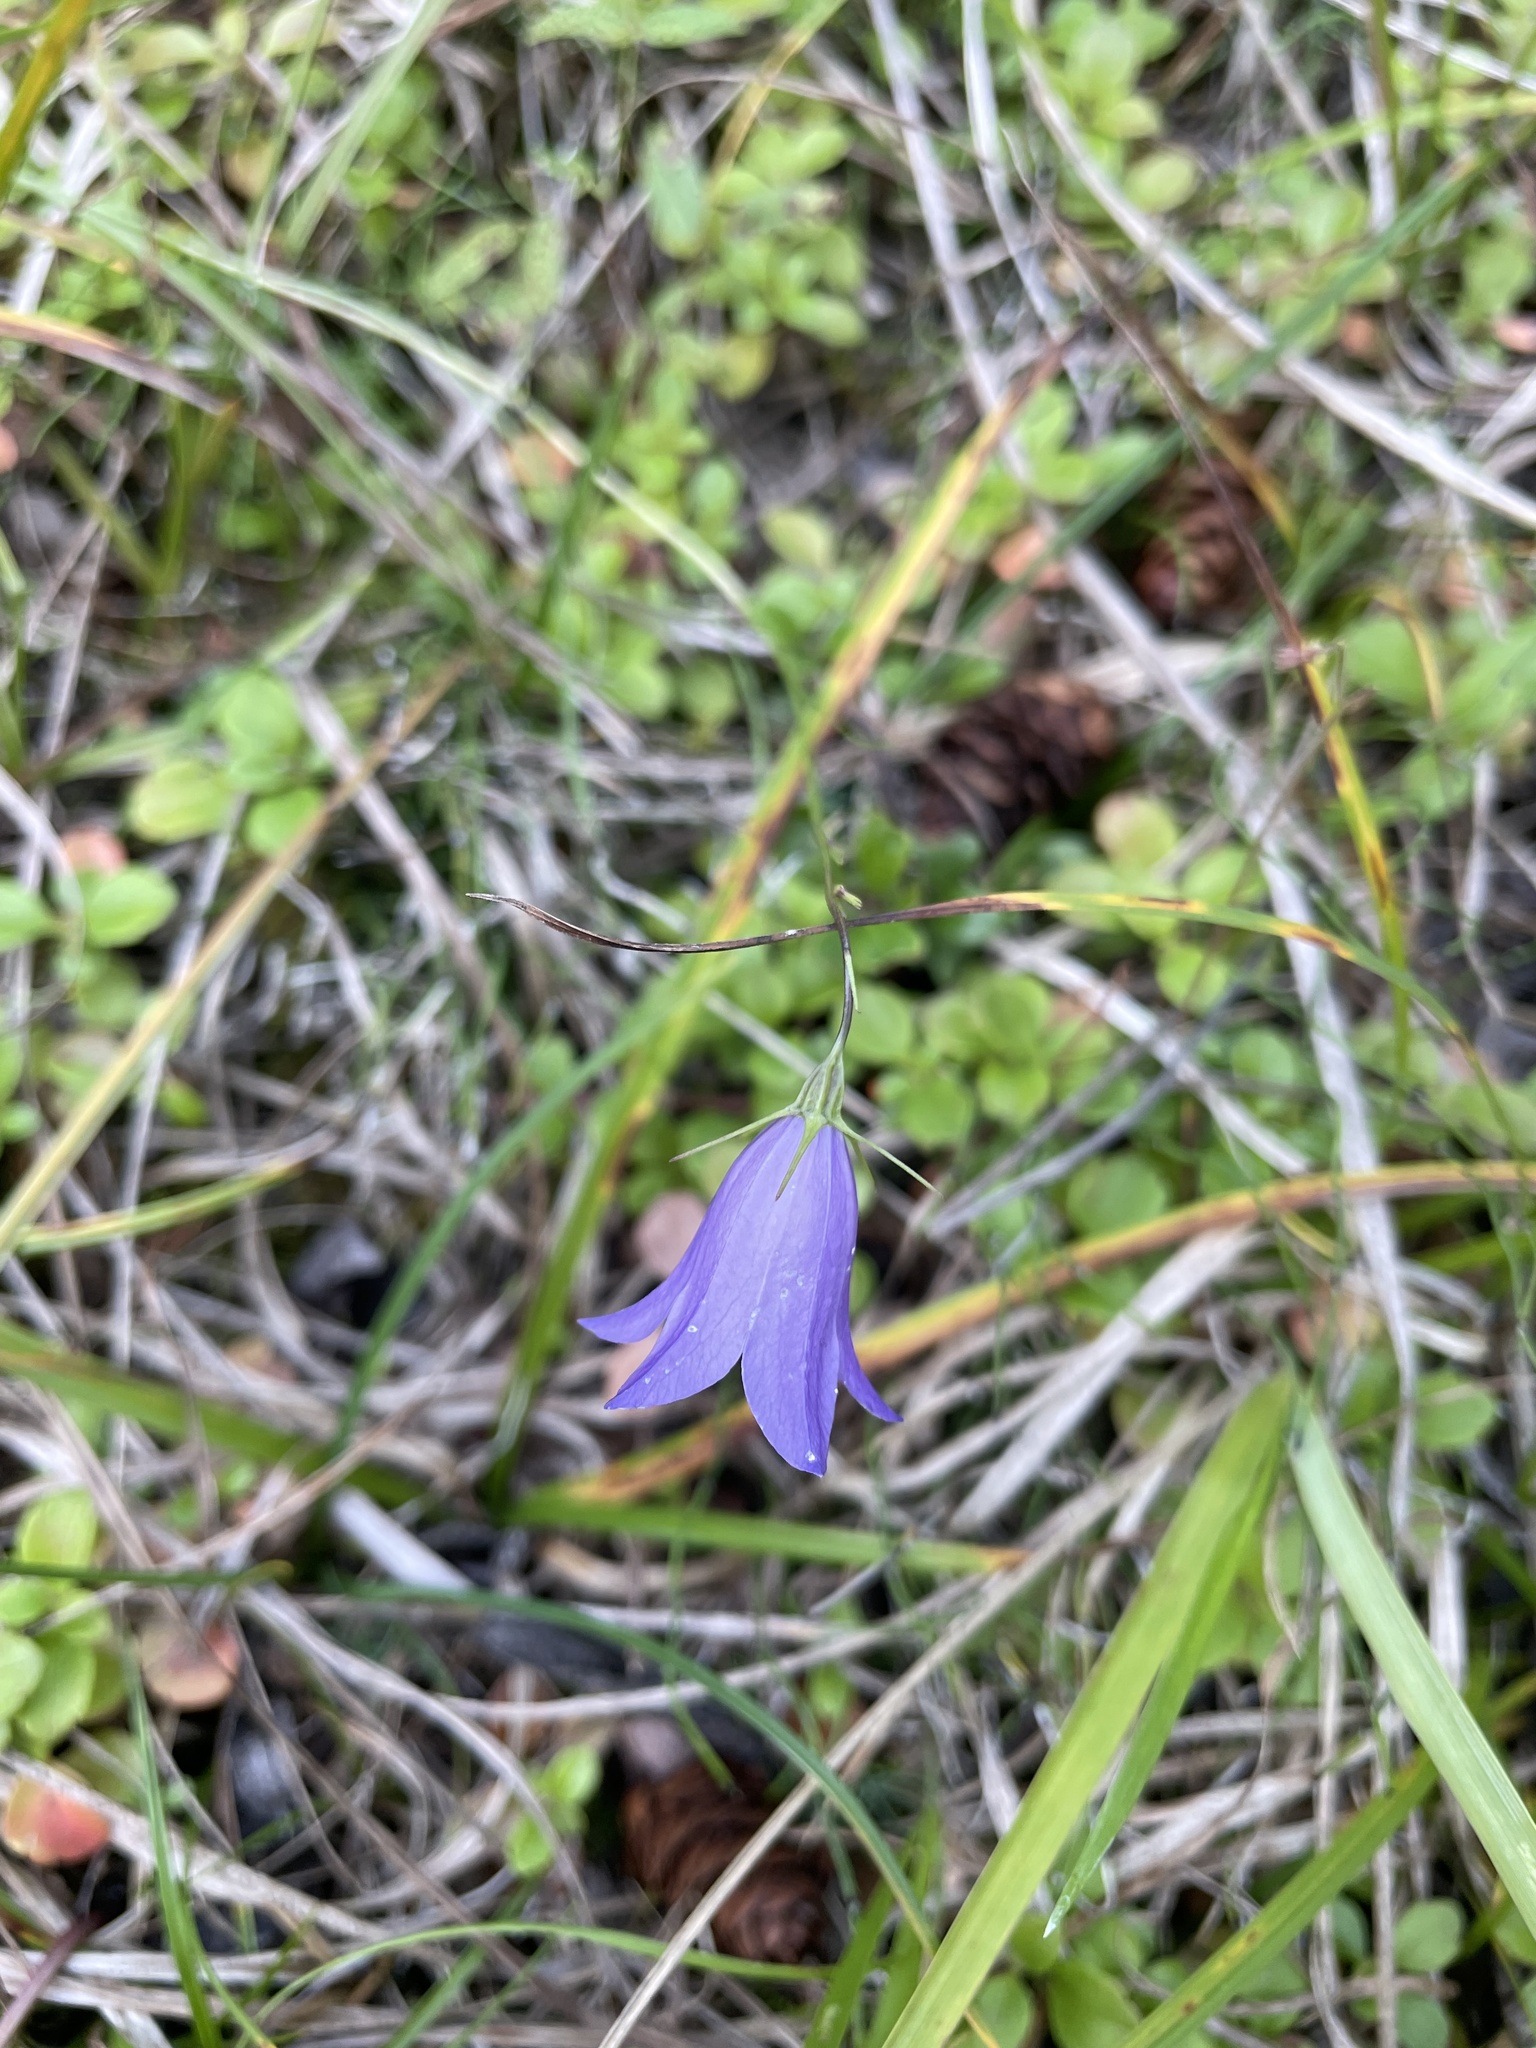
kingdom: Plantae
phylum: Tracheophyta
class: Magnoliopsida
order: Asterales
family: Campanulaceae
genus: Campanula
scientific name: Campanula alaskana
